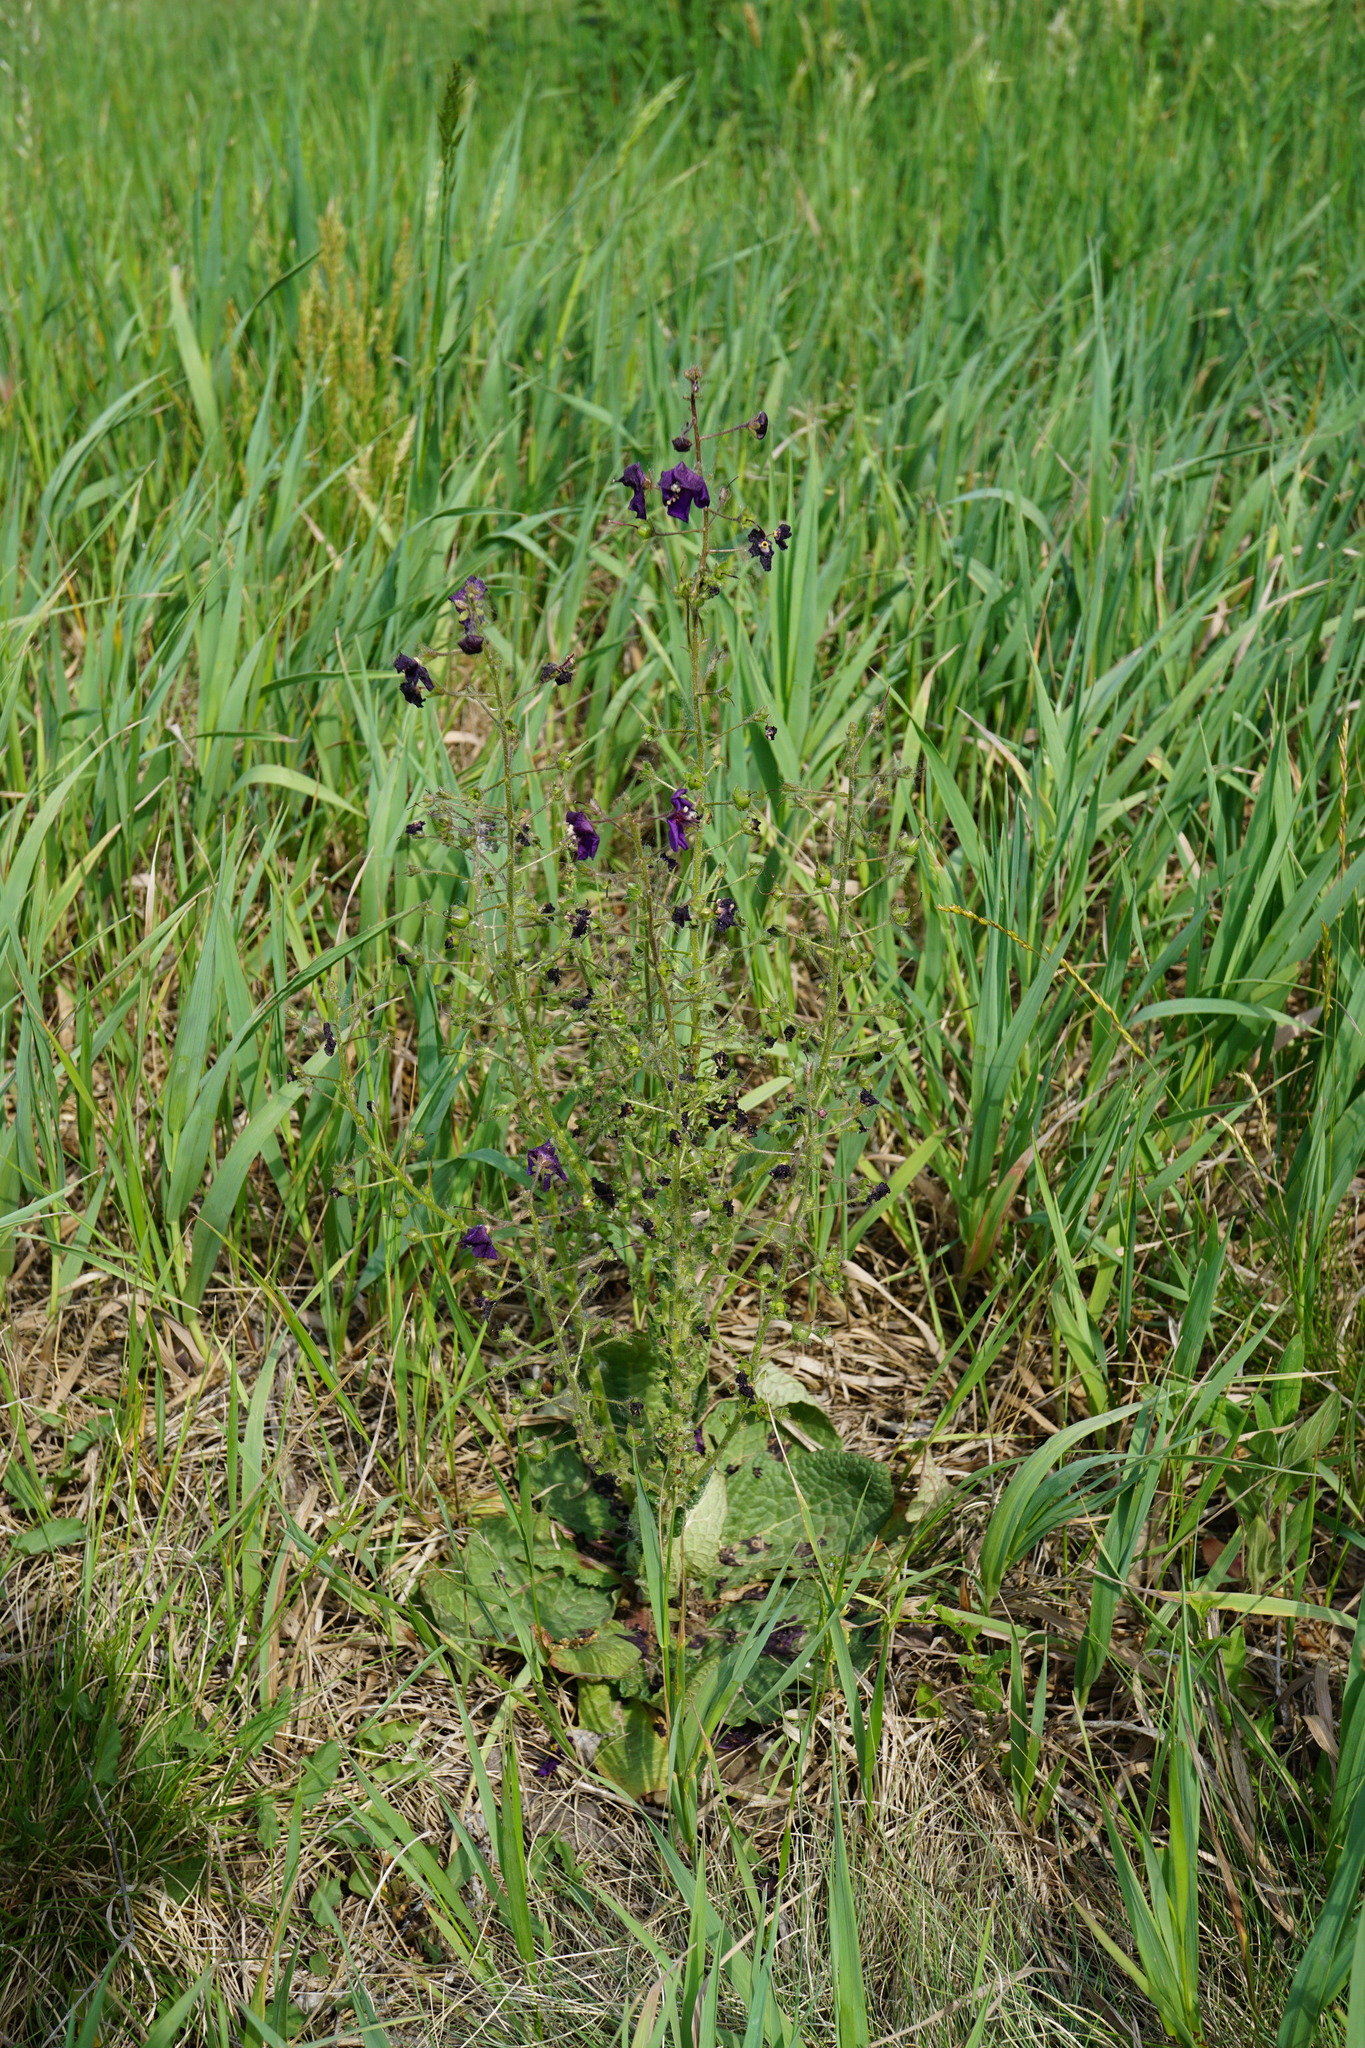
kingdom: Plantae
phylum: Tracheophyta
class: Magnoliopsida
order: Lamiales
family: Scrophulariaceae
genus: Verbascum
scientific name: Verbascum phoeniceum
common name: Purple mullein
